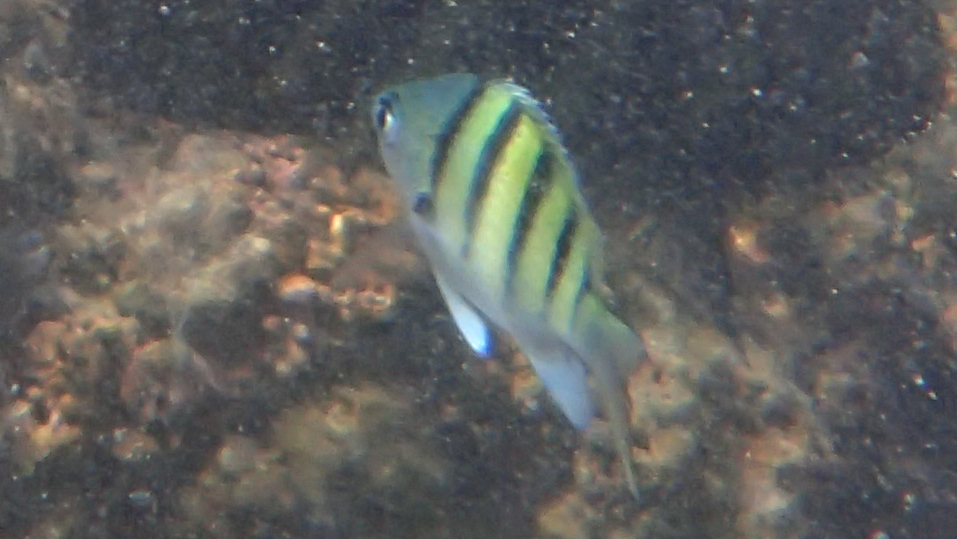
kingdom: Animalia
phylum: Chordata
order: Perciformes
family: Pomacentridae
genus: Abudefduf
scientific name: Abudefduf abdominalis
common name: Green damselfish
